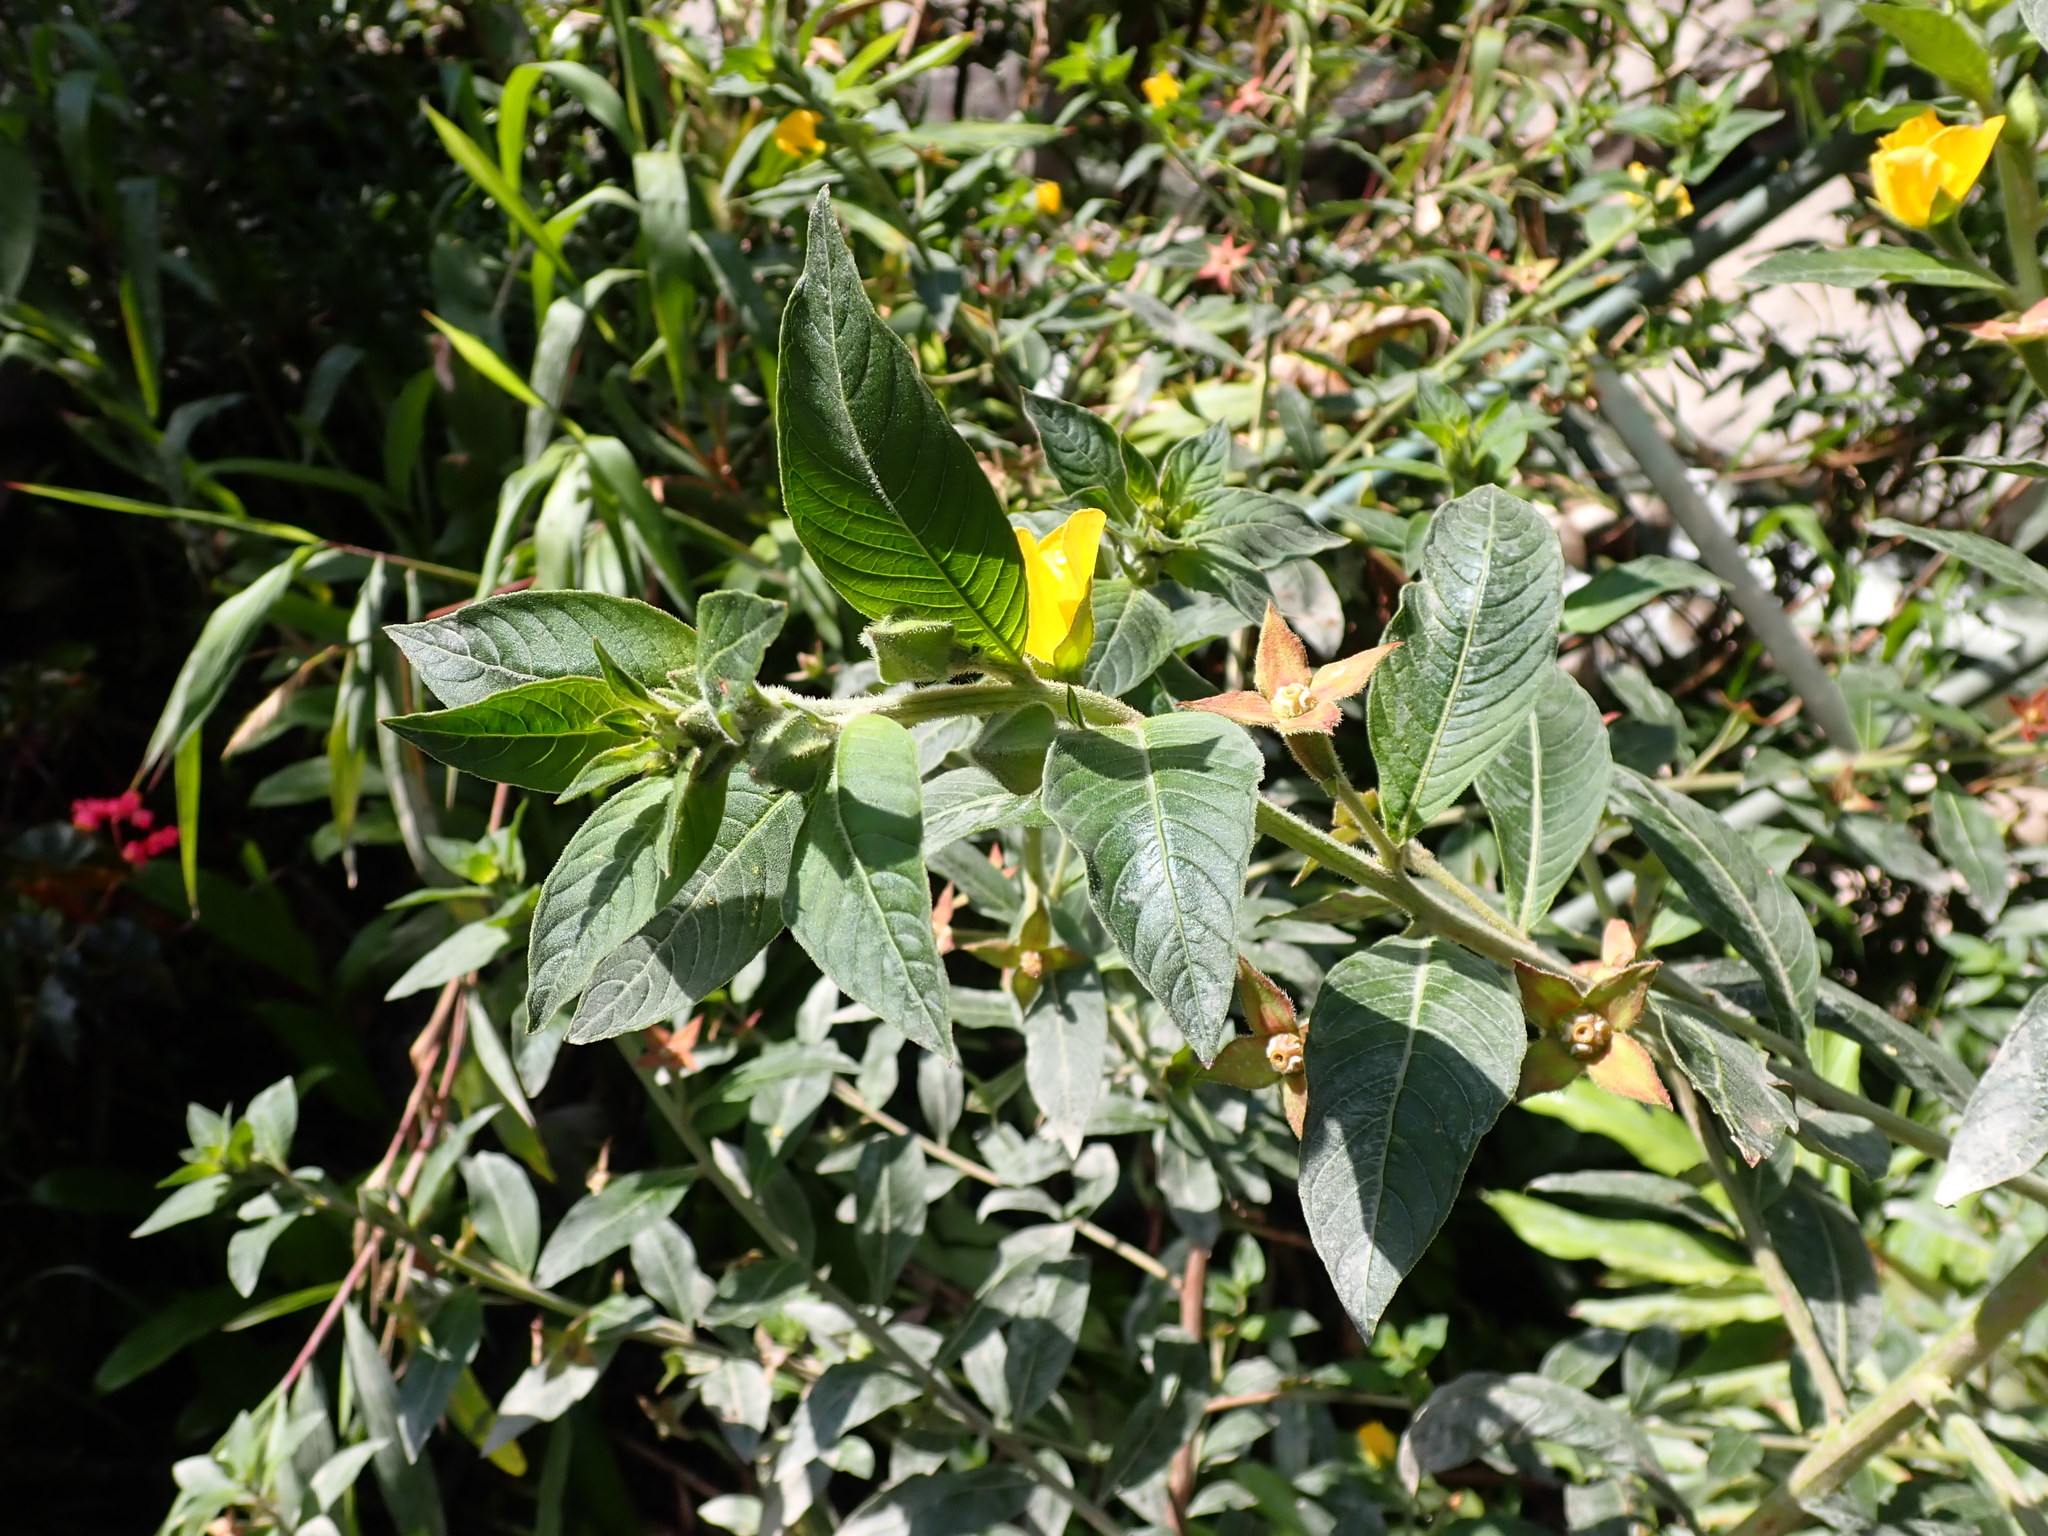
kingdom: Plantae
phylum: Tracheophyta
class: Magnoliopsida
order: Myrtales
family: Onagraceae
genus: Ludwigia
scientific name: Ludwigia peruviana
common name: Peruvian primrose-willow
